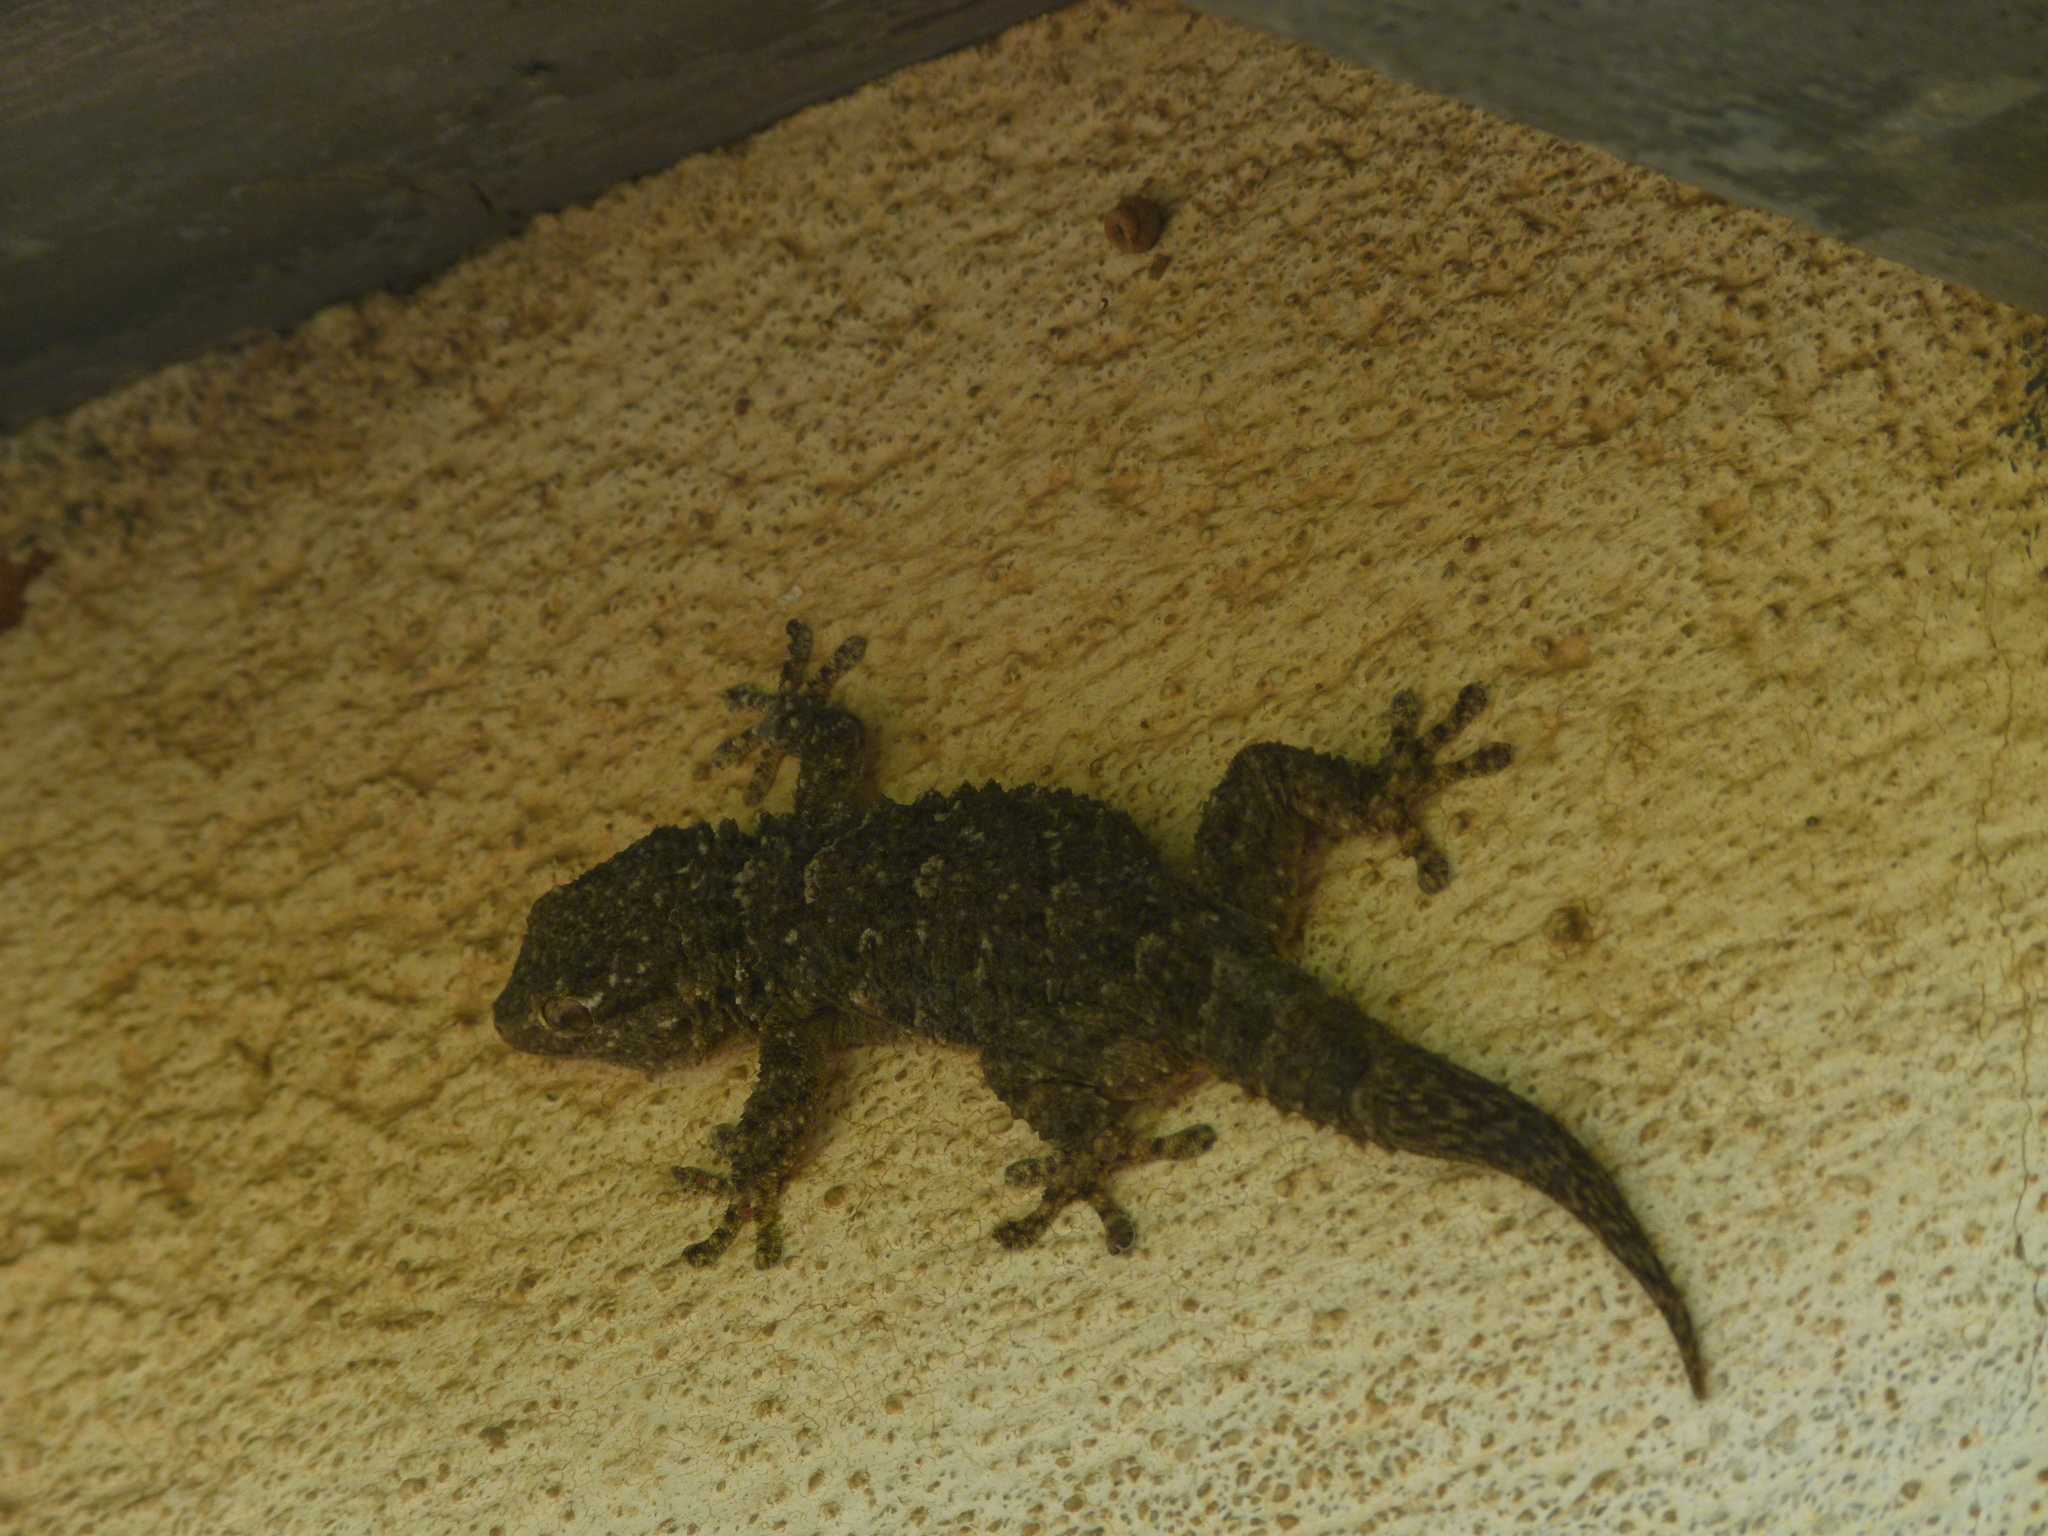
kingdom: Animalia
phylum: Chordata
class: Squamata
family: Phyllodactylidae
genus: Tarentola
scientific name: Tarentola mauritanica
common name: Moorish gecko
